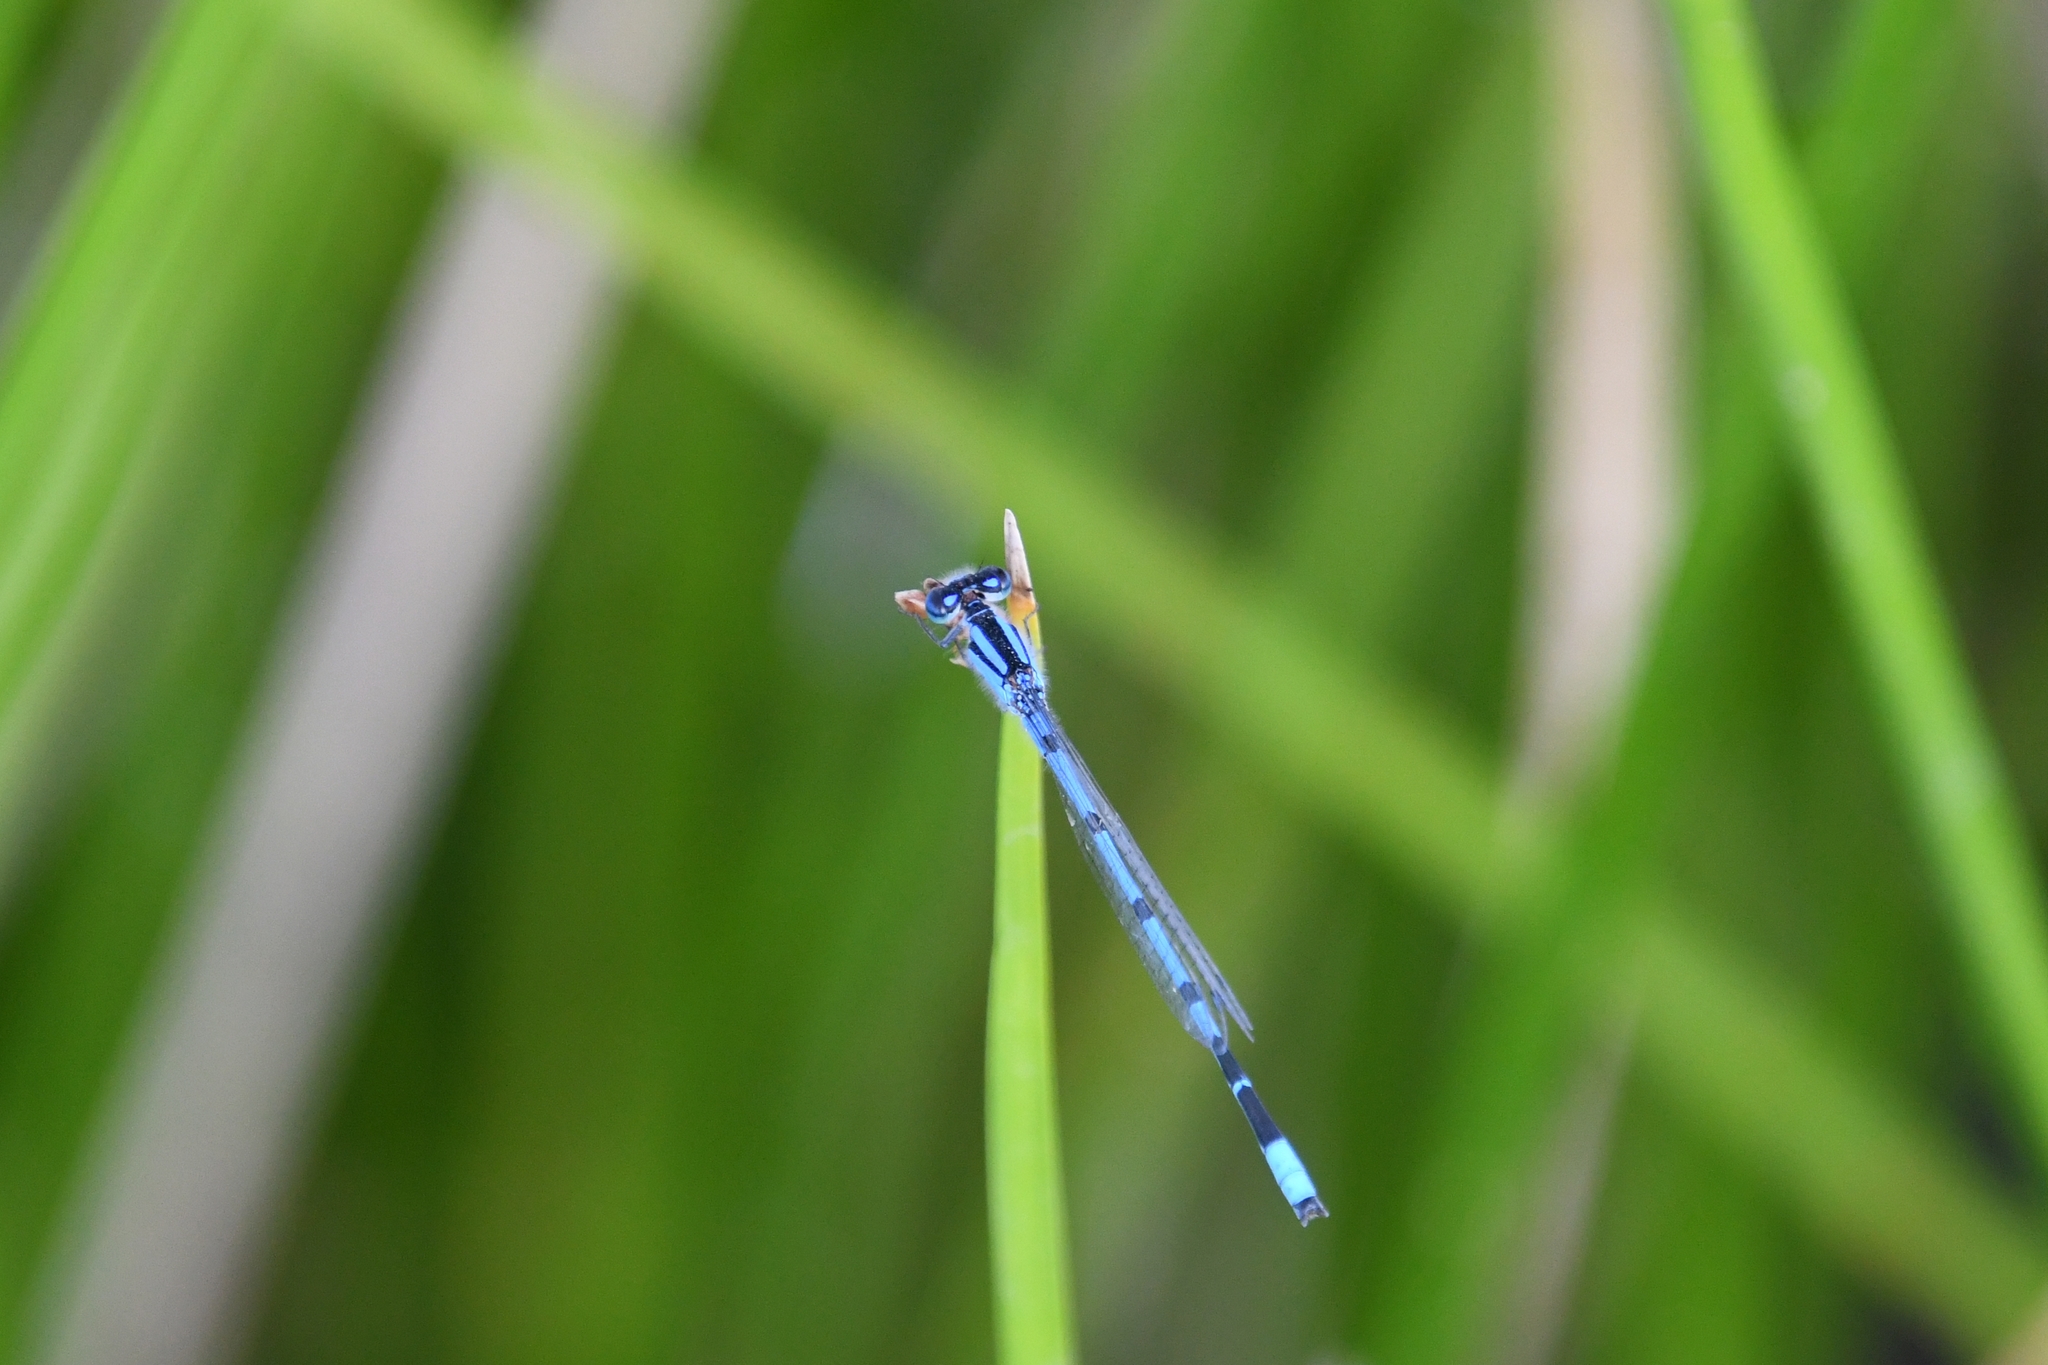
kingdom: Animalia
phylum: Arthropoda
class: Insecta
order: Odonata
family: Coenagrionidae
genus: Enallagma
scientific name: Enallagma civile
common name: Damselfly
